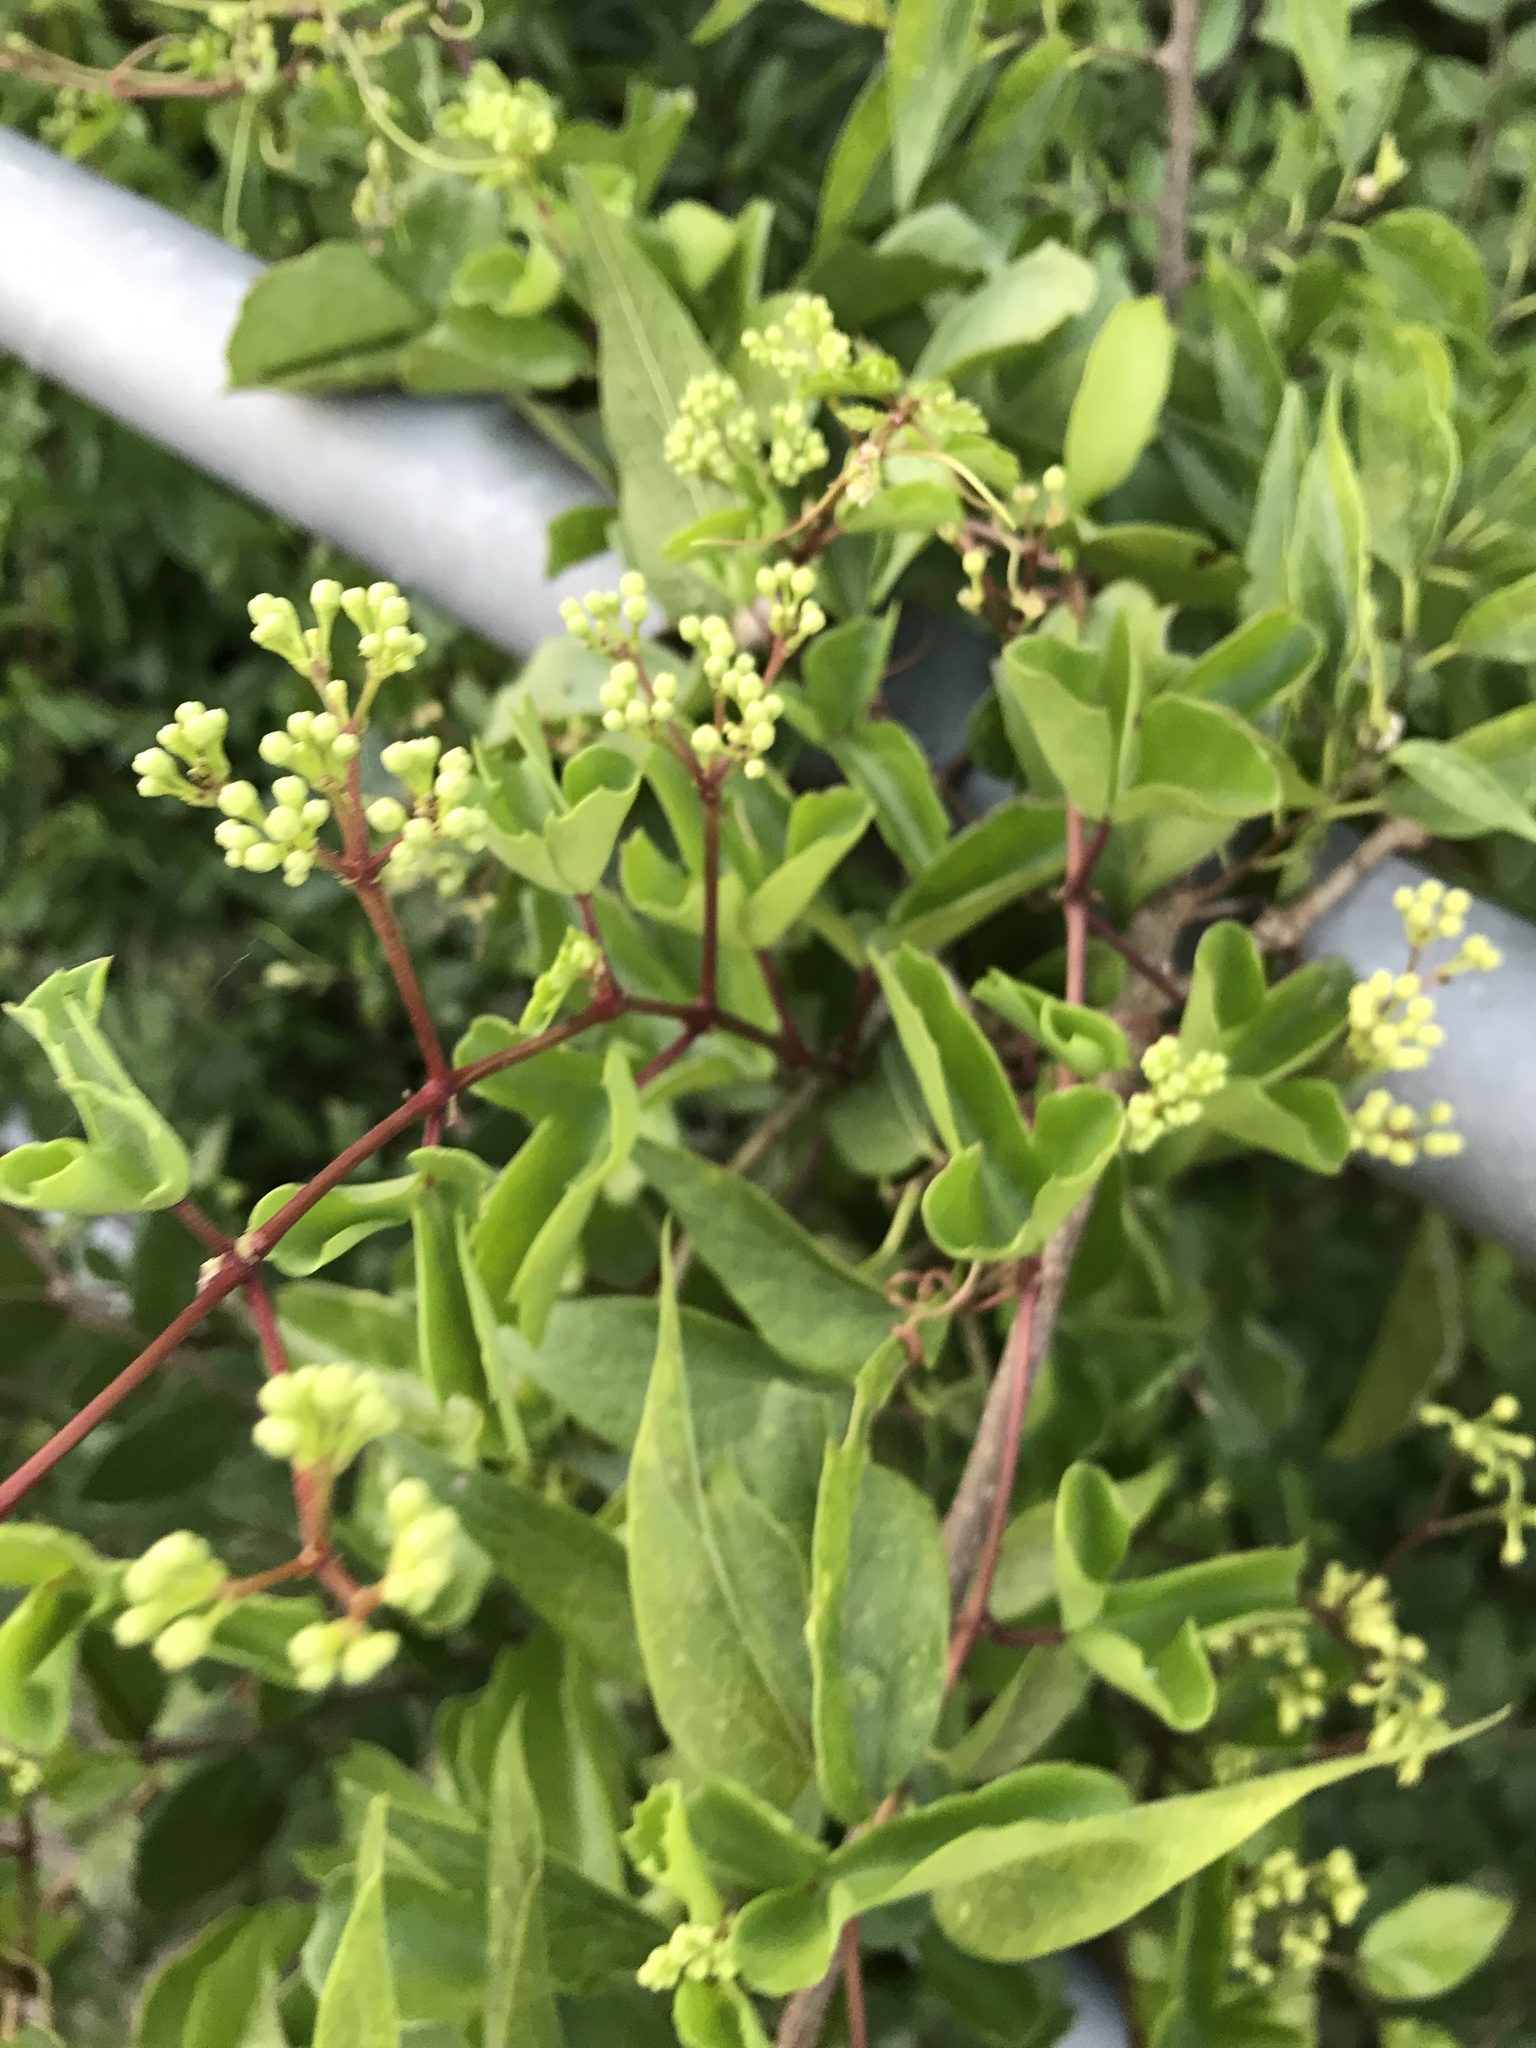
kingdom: Plantae
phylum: Tracheophyta
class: Magnoliopsida
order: Vitales
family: Vitaceae
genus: Cissus
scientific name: Cissus trifoliata
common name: Vine-sorrel
